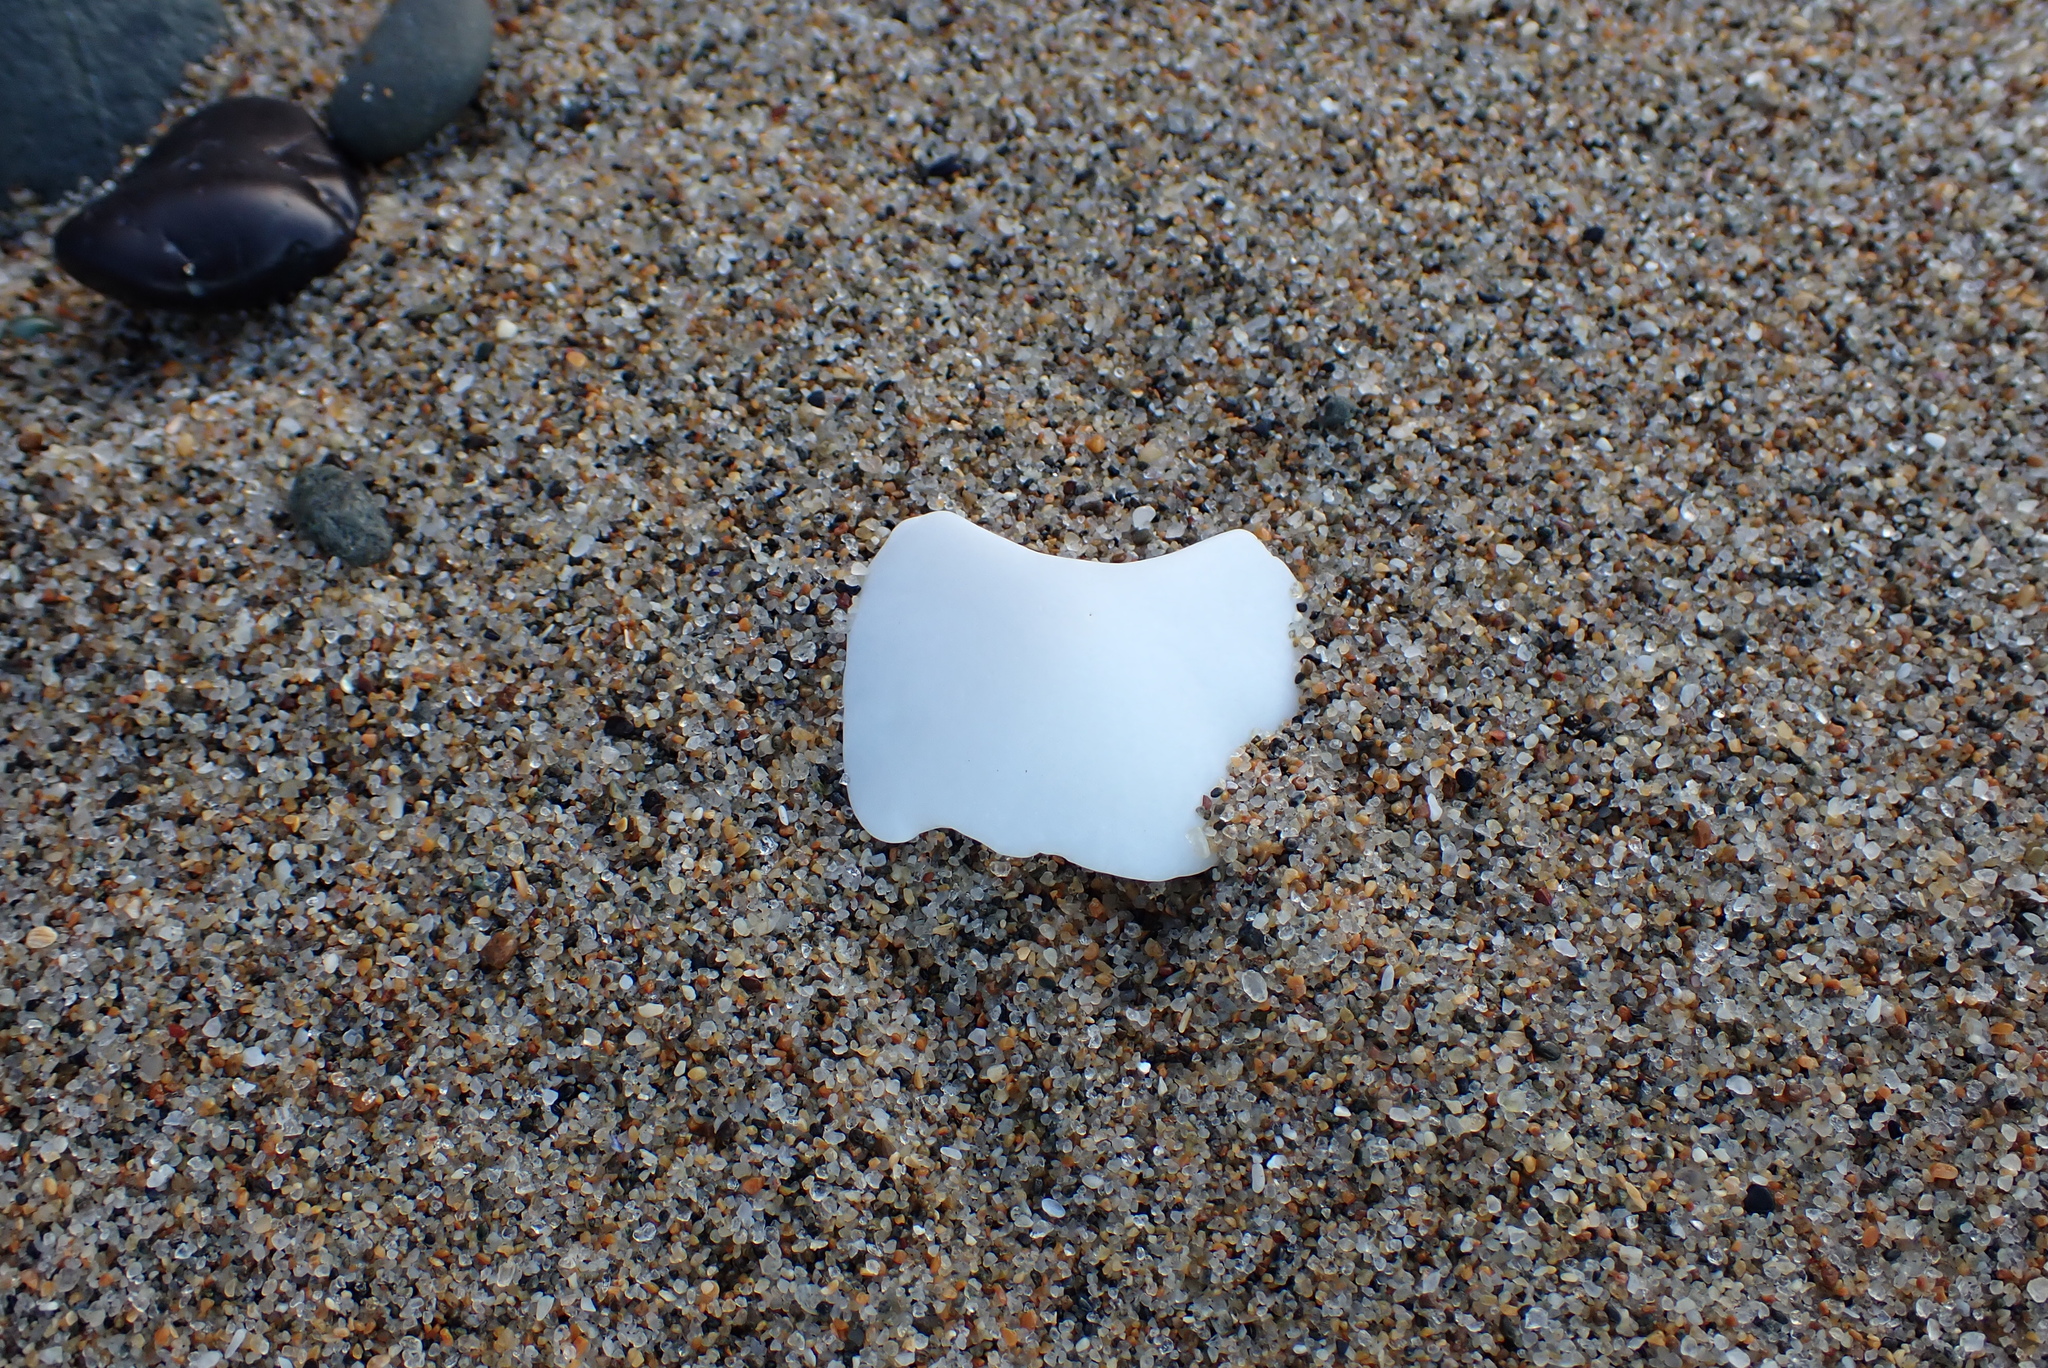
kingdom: Animalia
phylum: Mollusca
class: Polyplacophora
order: Chitonida
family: Acanthochitonidae
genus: Cryptochiton
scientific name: Cryptochiton stelleri
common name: Giant pacific chiton
